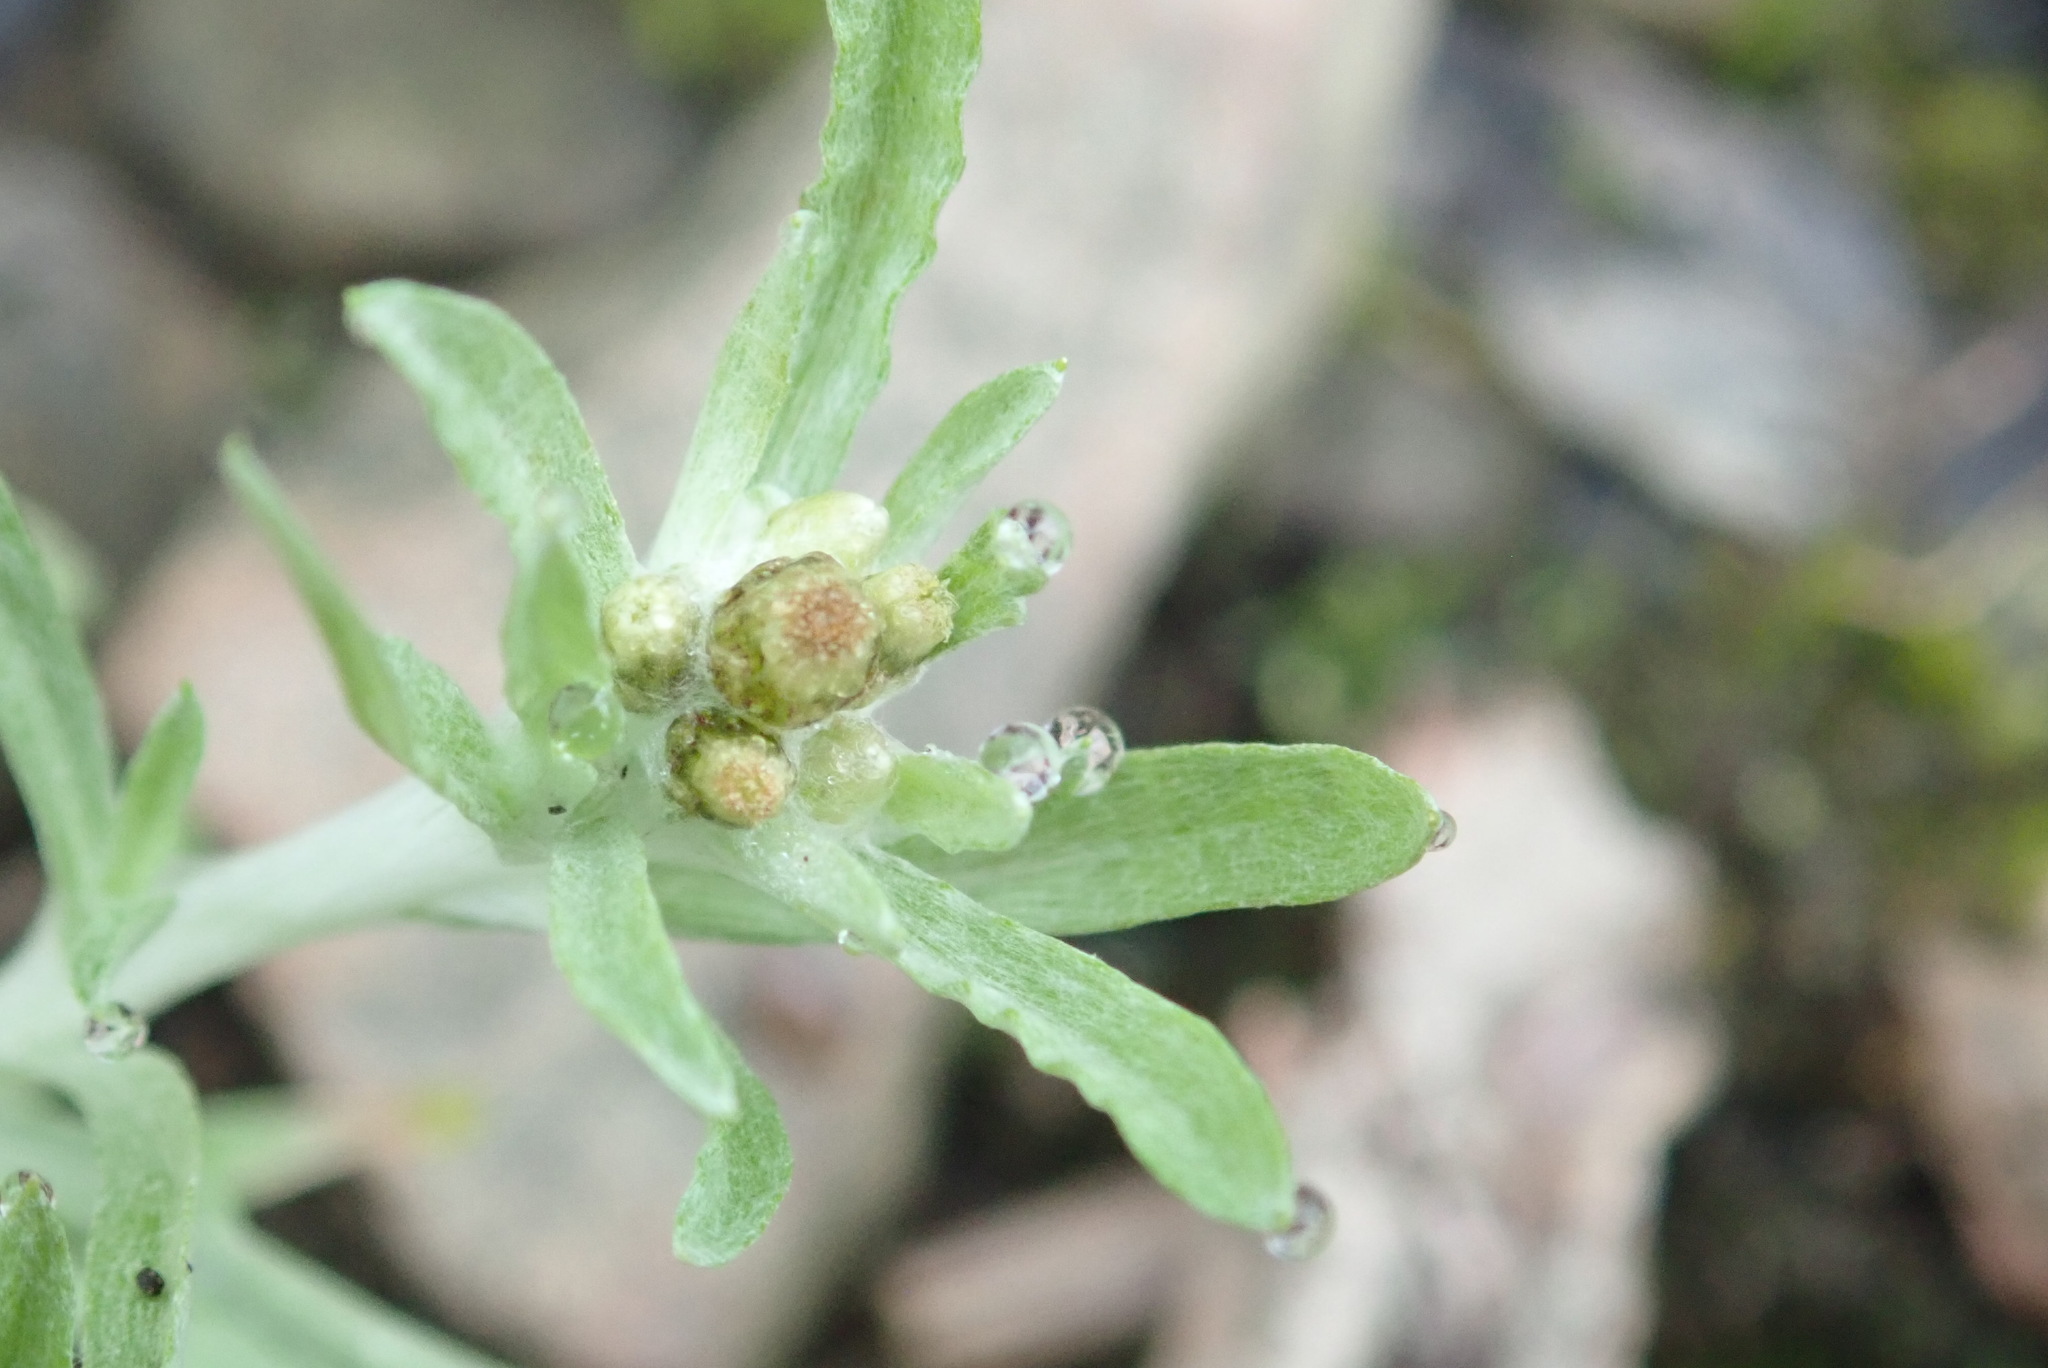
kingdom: Plantae
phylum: Tracheophyta
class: Magnoliopsida
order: Asterales
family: Asteraceae
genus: Gnaphalium
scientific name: Gnaphalium uliginosum
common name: Marsh cudweed
